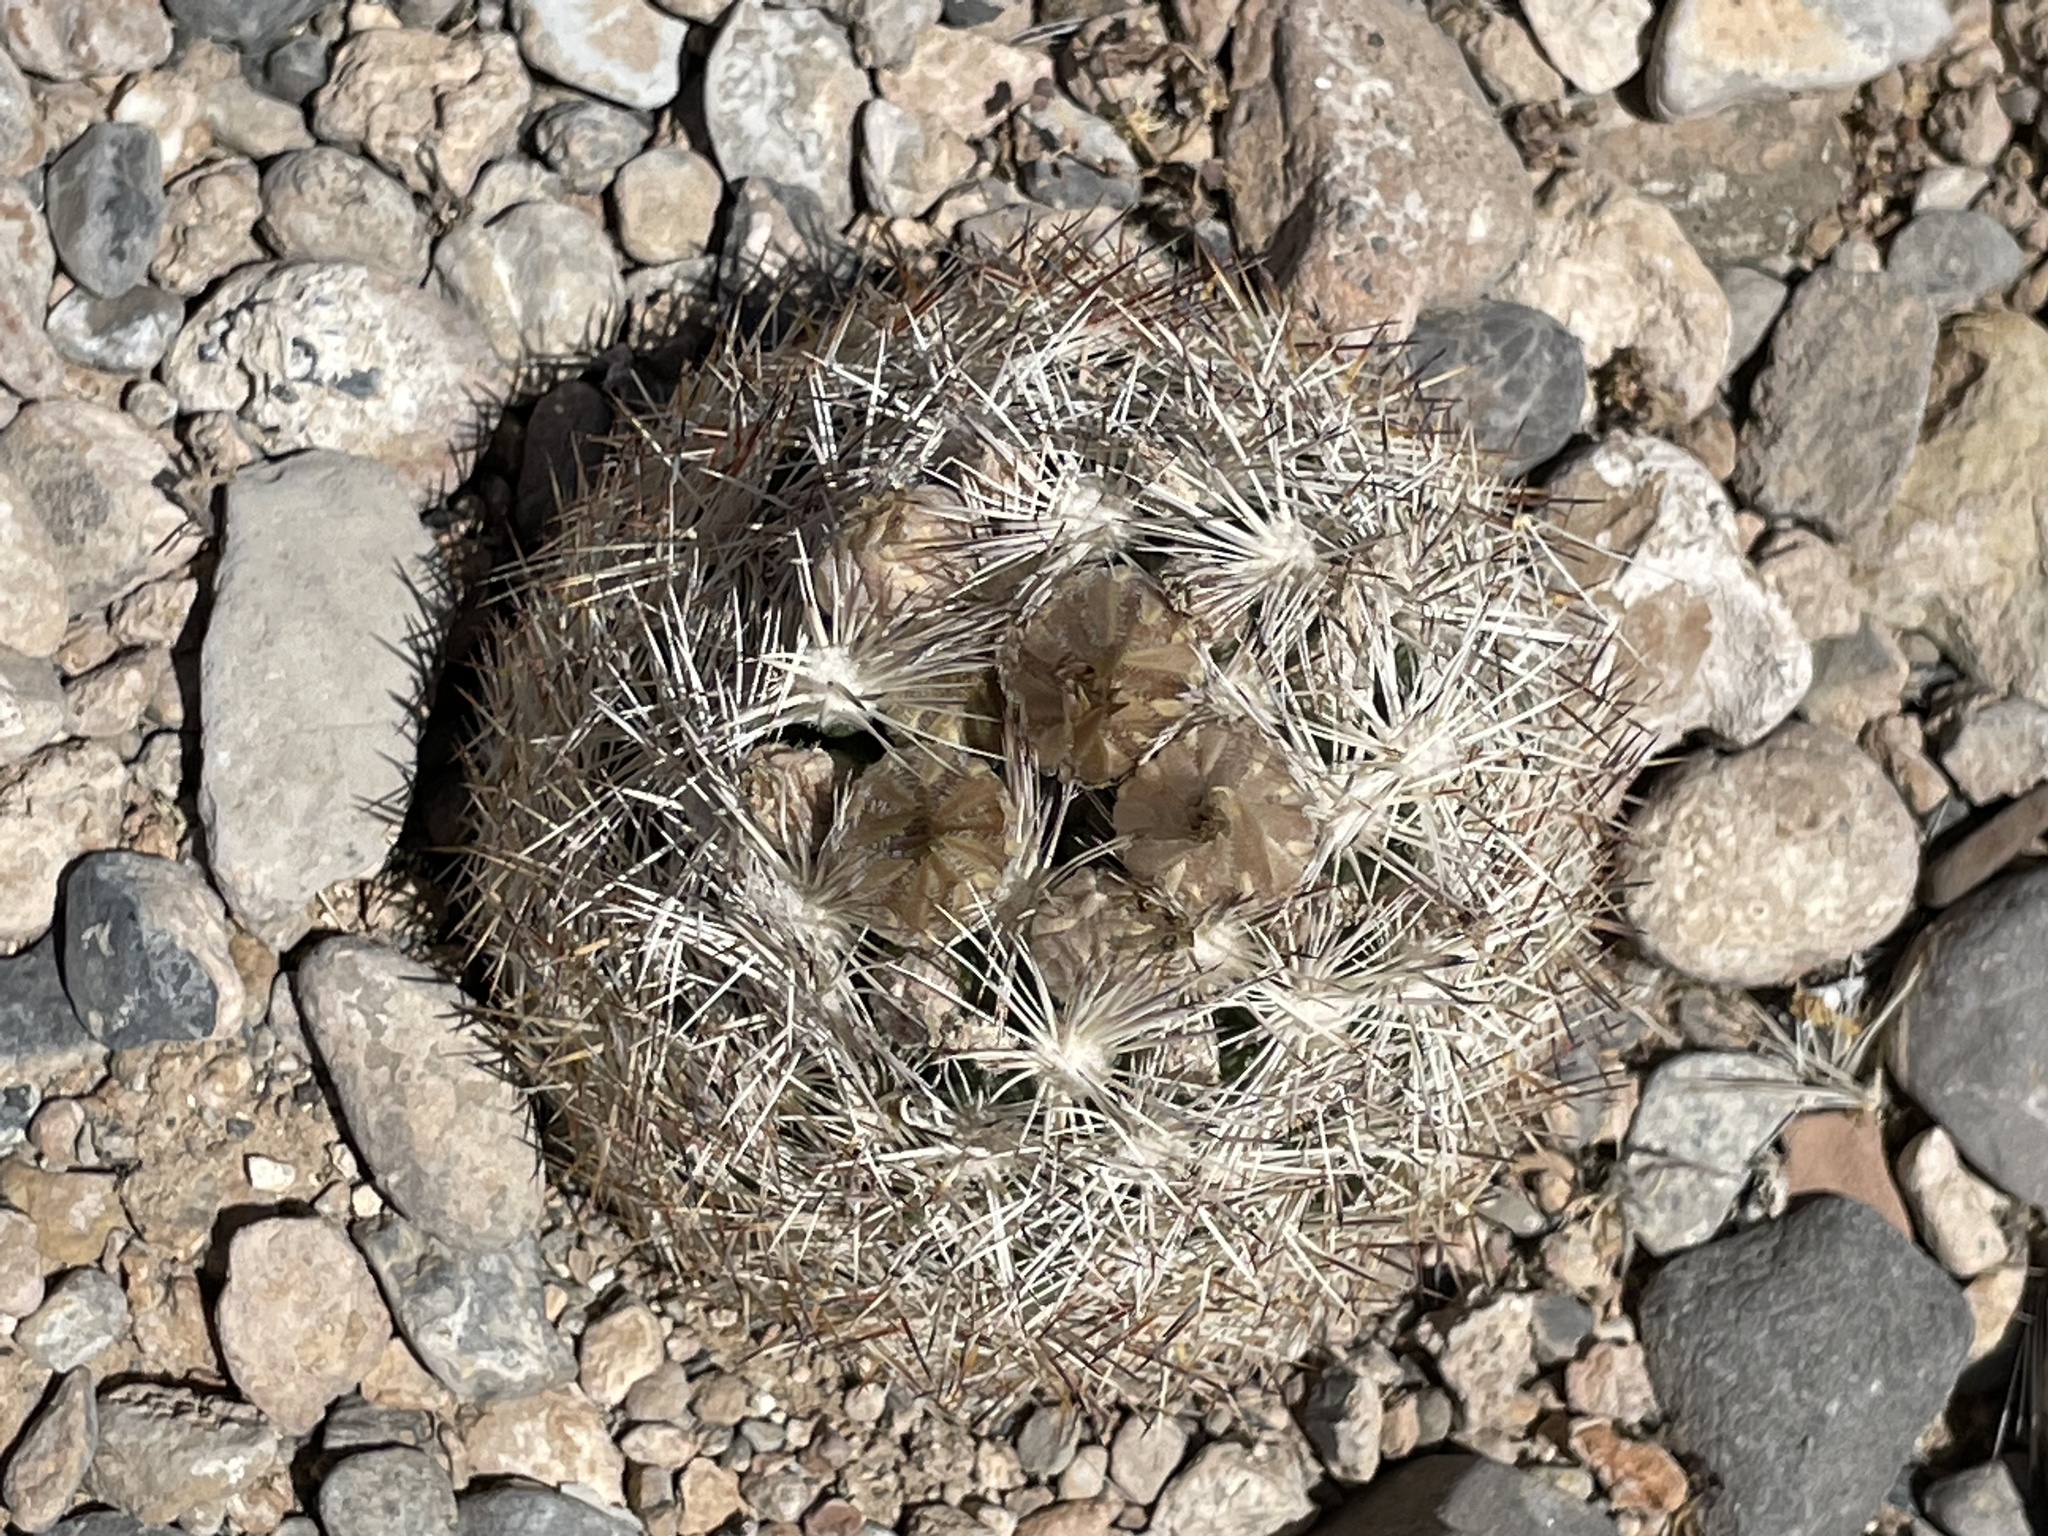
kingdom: Plantae
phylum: Tracheophyta
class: Magnoliopsida
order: Caryophyllales
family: Cactaceae
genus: Pelecyphora
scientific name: Pelecyphora dasyacantha
